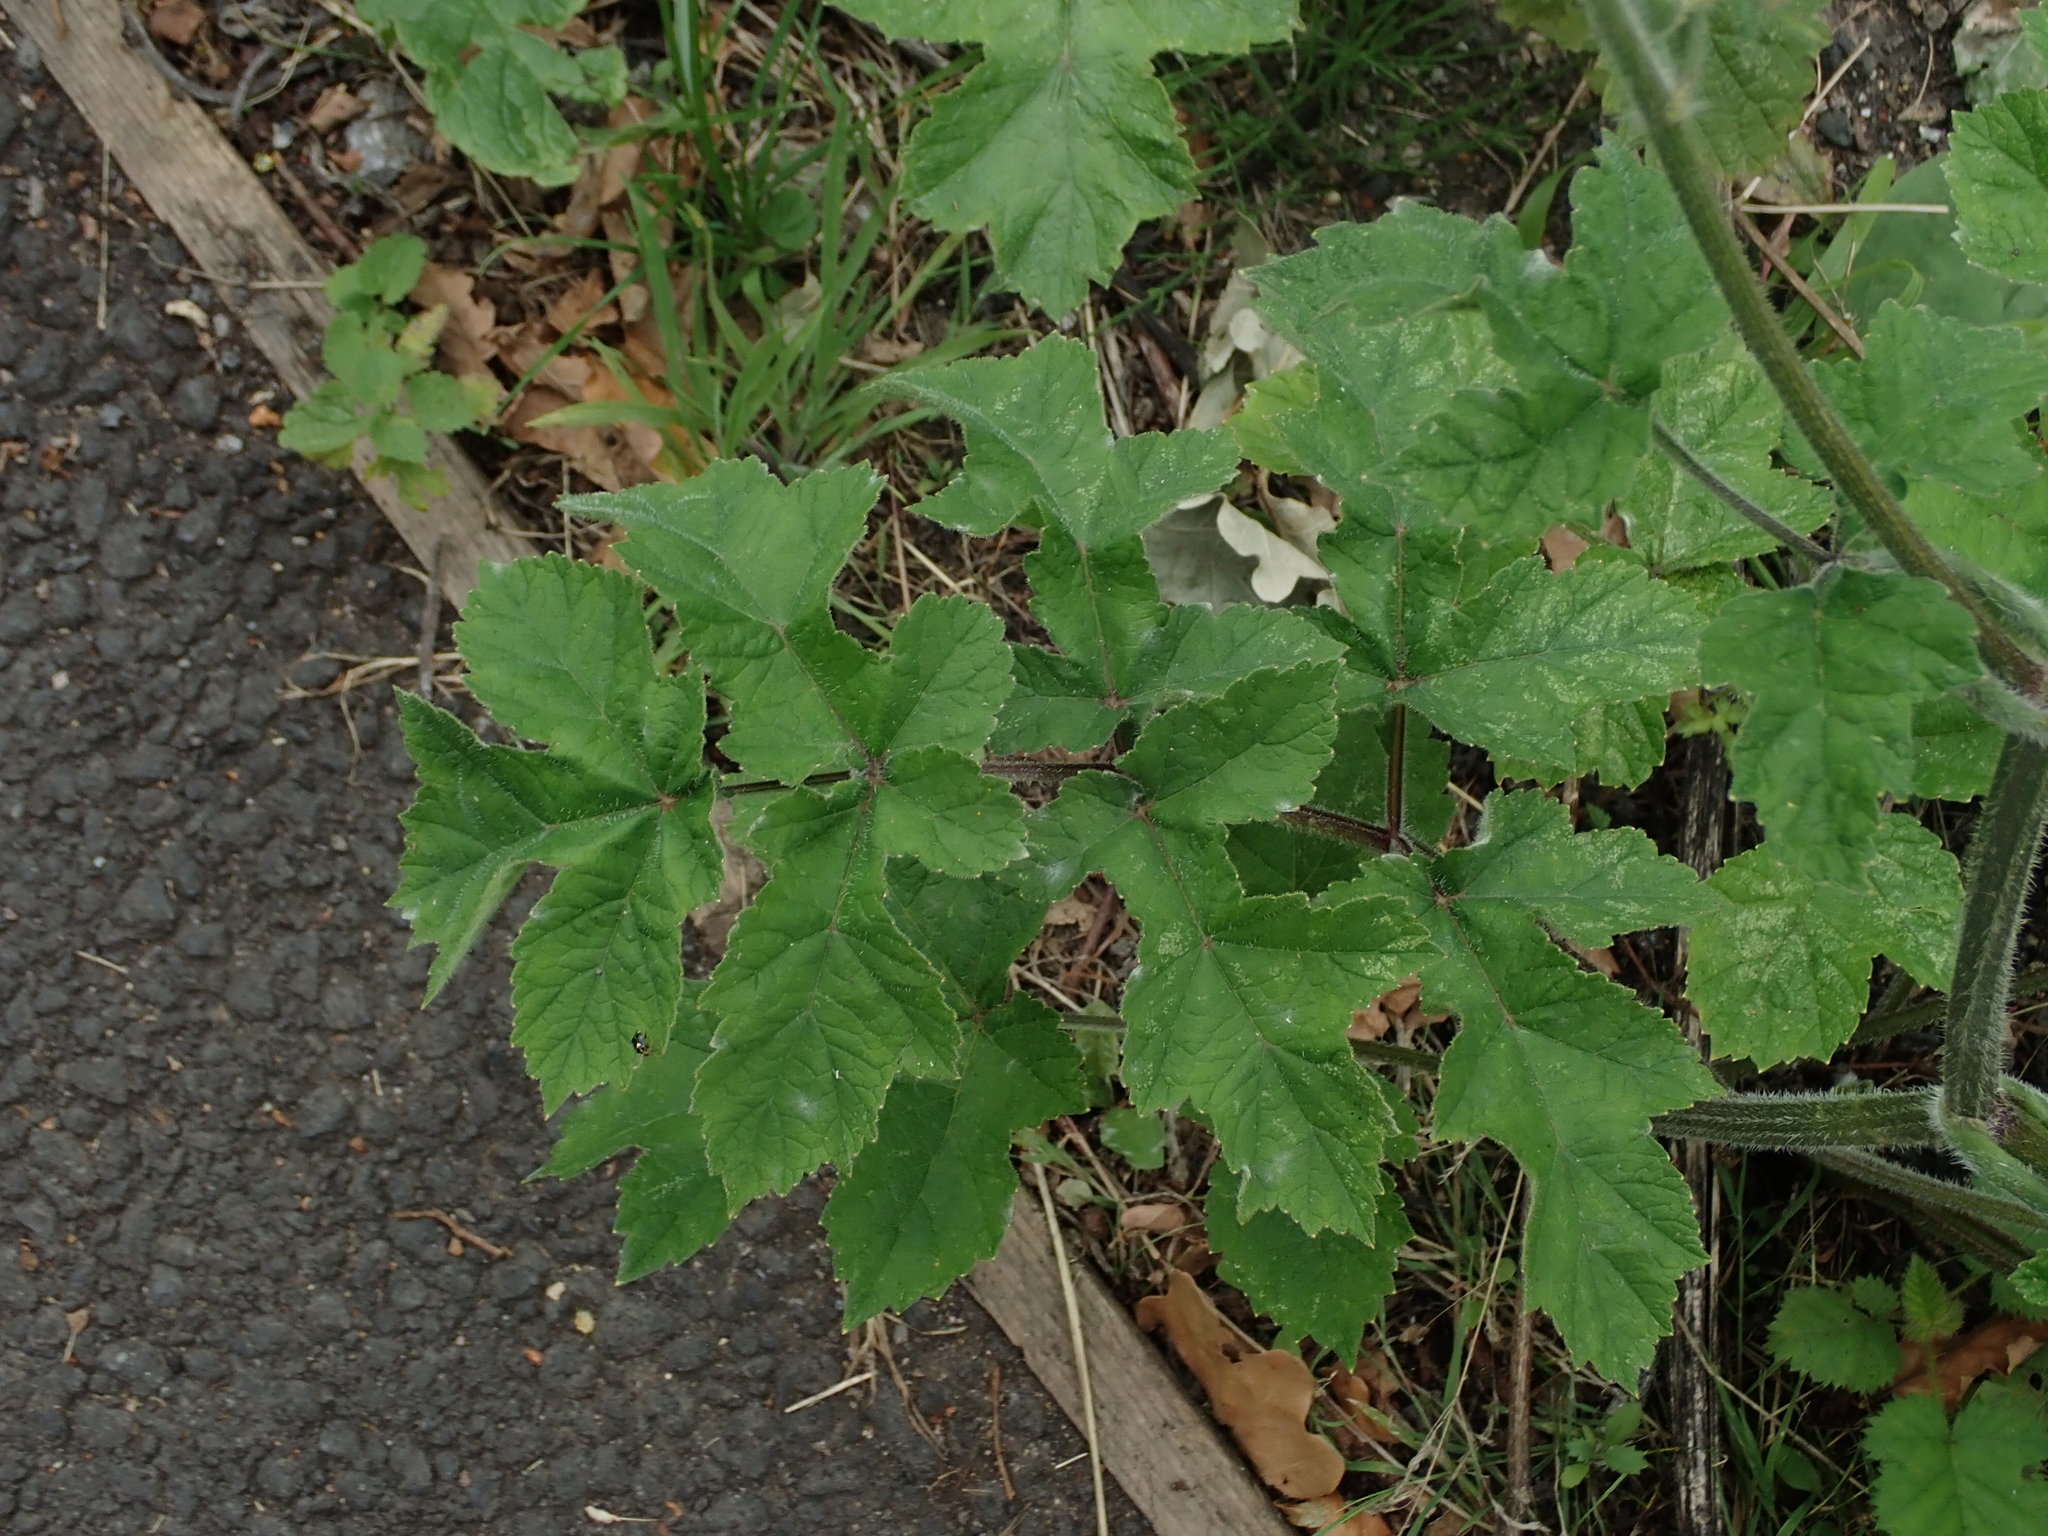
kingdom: Plantae
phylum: Tracheophyta
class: Magnoliopsida
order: Apiales
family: Apiaceae
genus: Heracleum
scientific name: Heracleum sphondylium
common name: Hogweed
